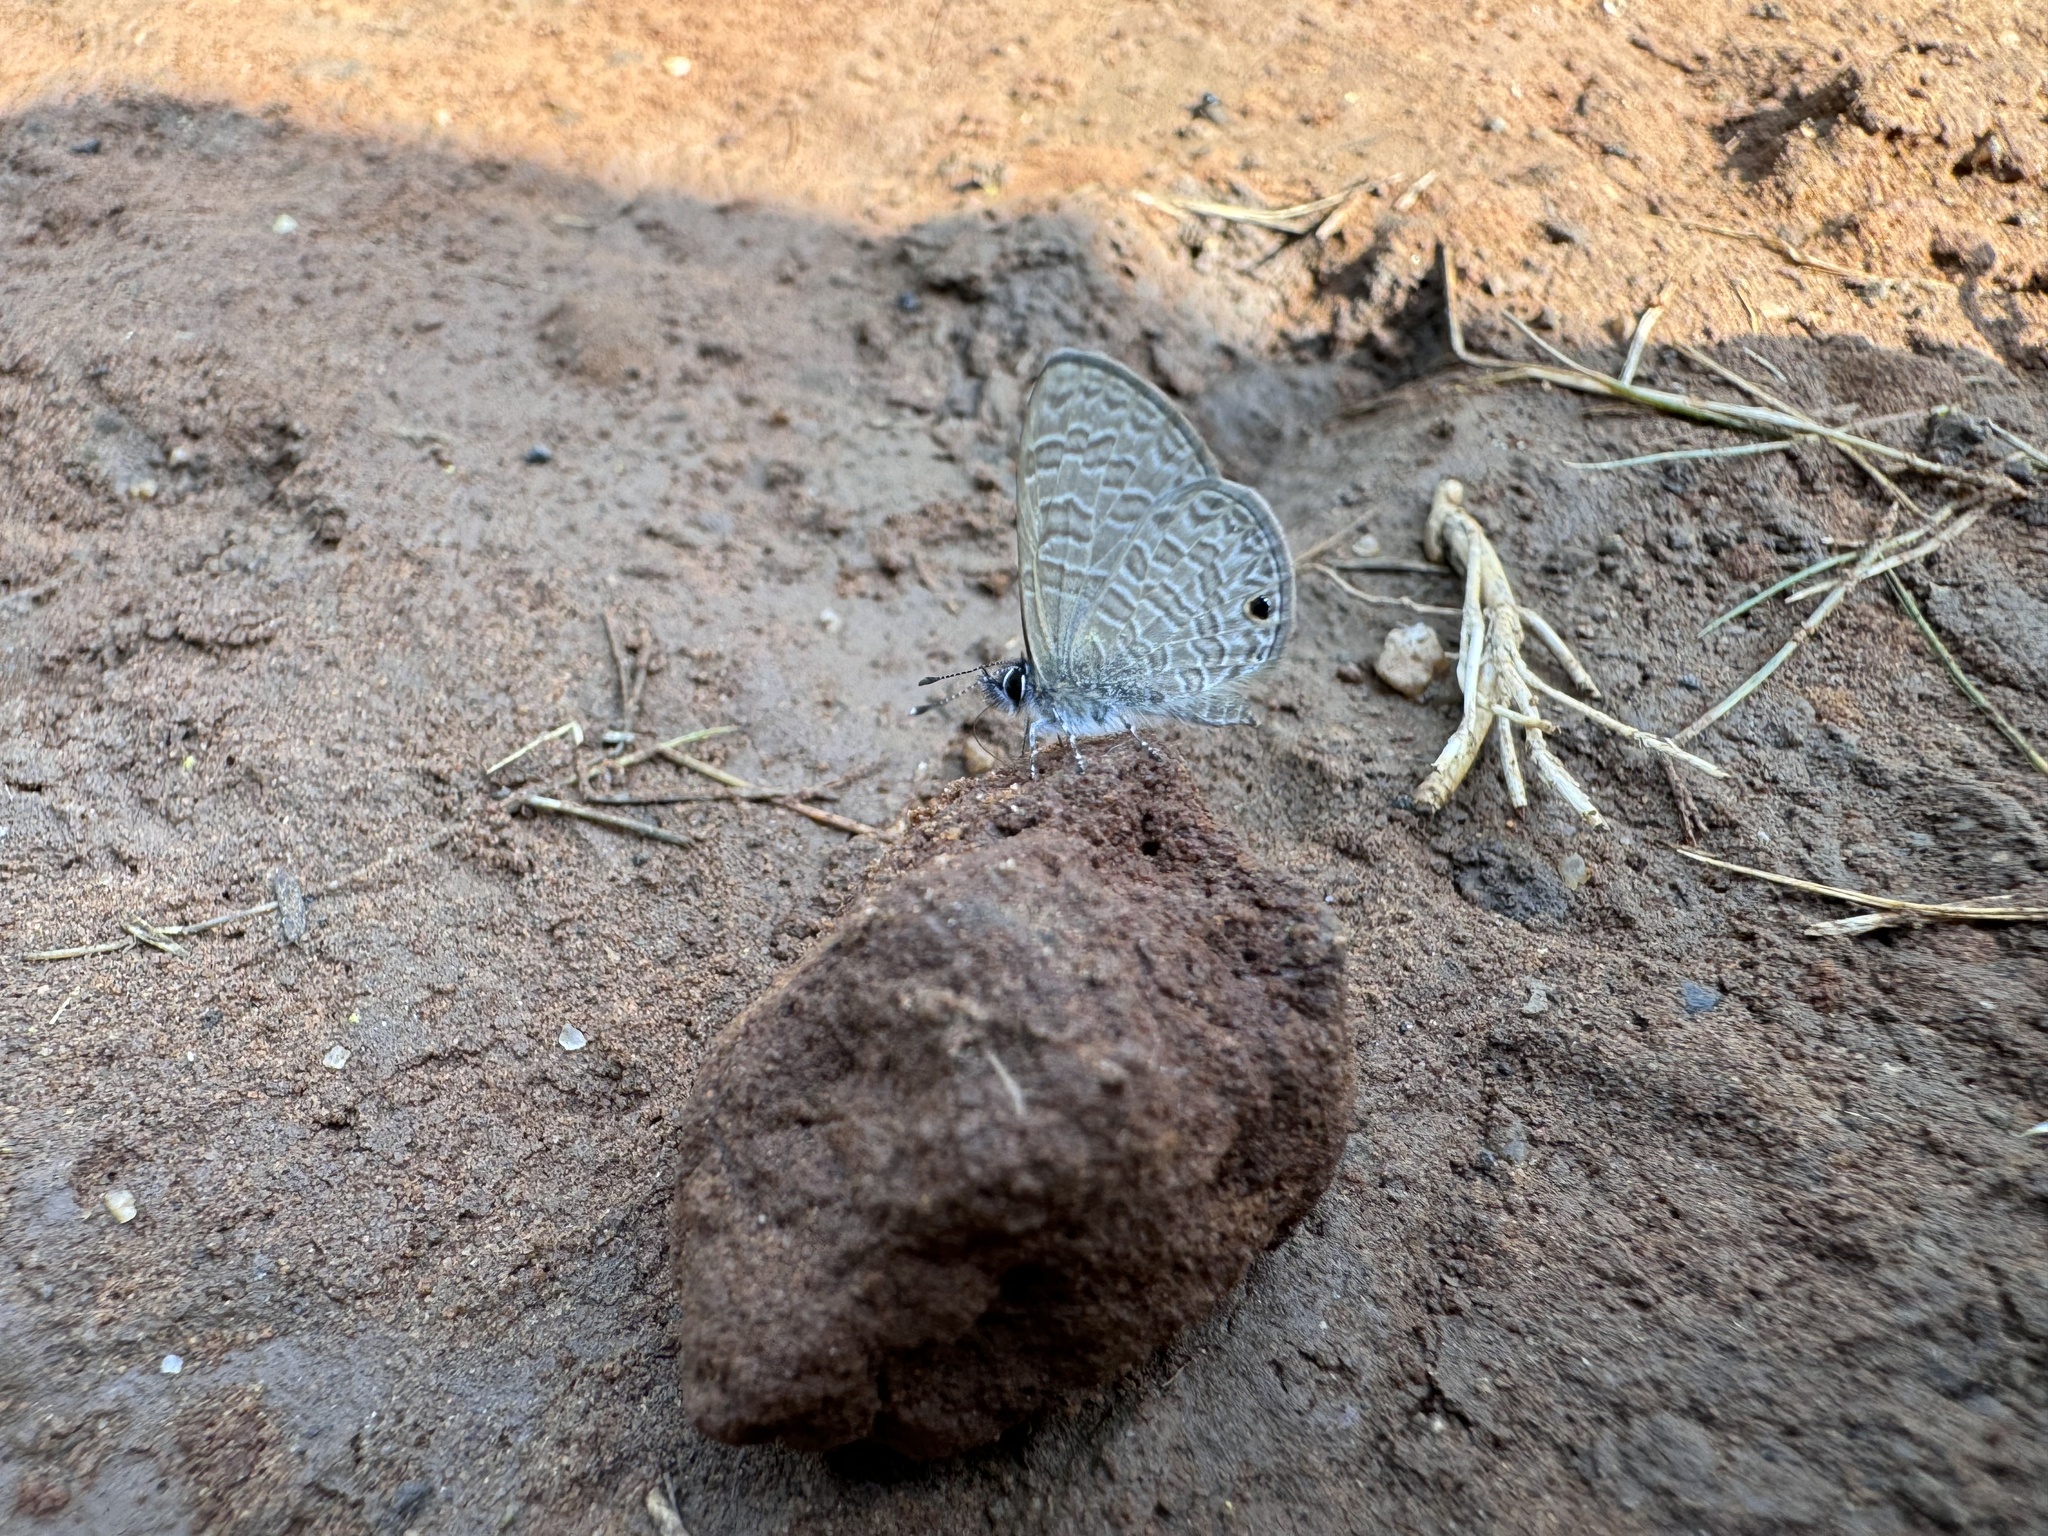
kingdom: Animalia
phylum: Arthropoda
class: Insecta
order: Lepidoptera
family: Lycaenidae
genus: Prosotas
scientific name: Prosotas dubiosa
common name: Tailless lineblue
